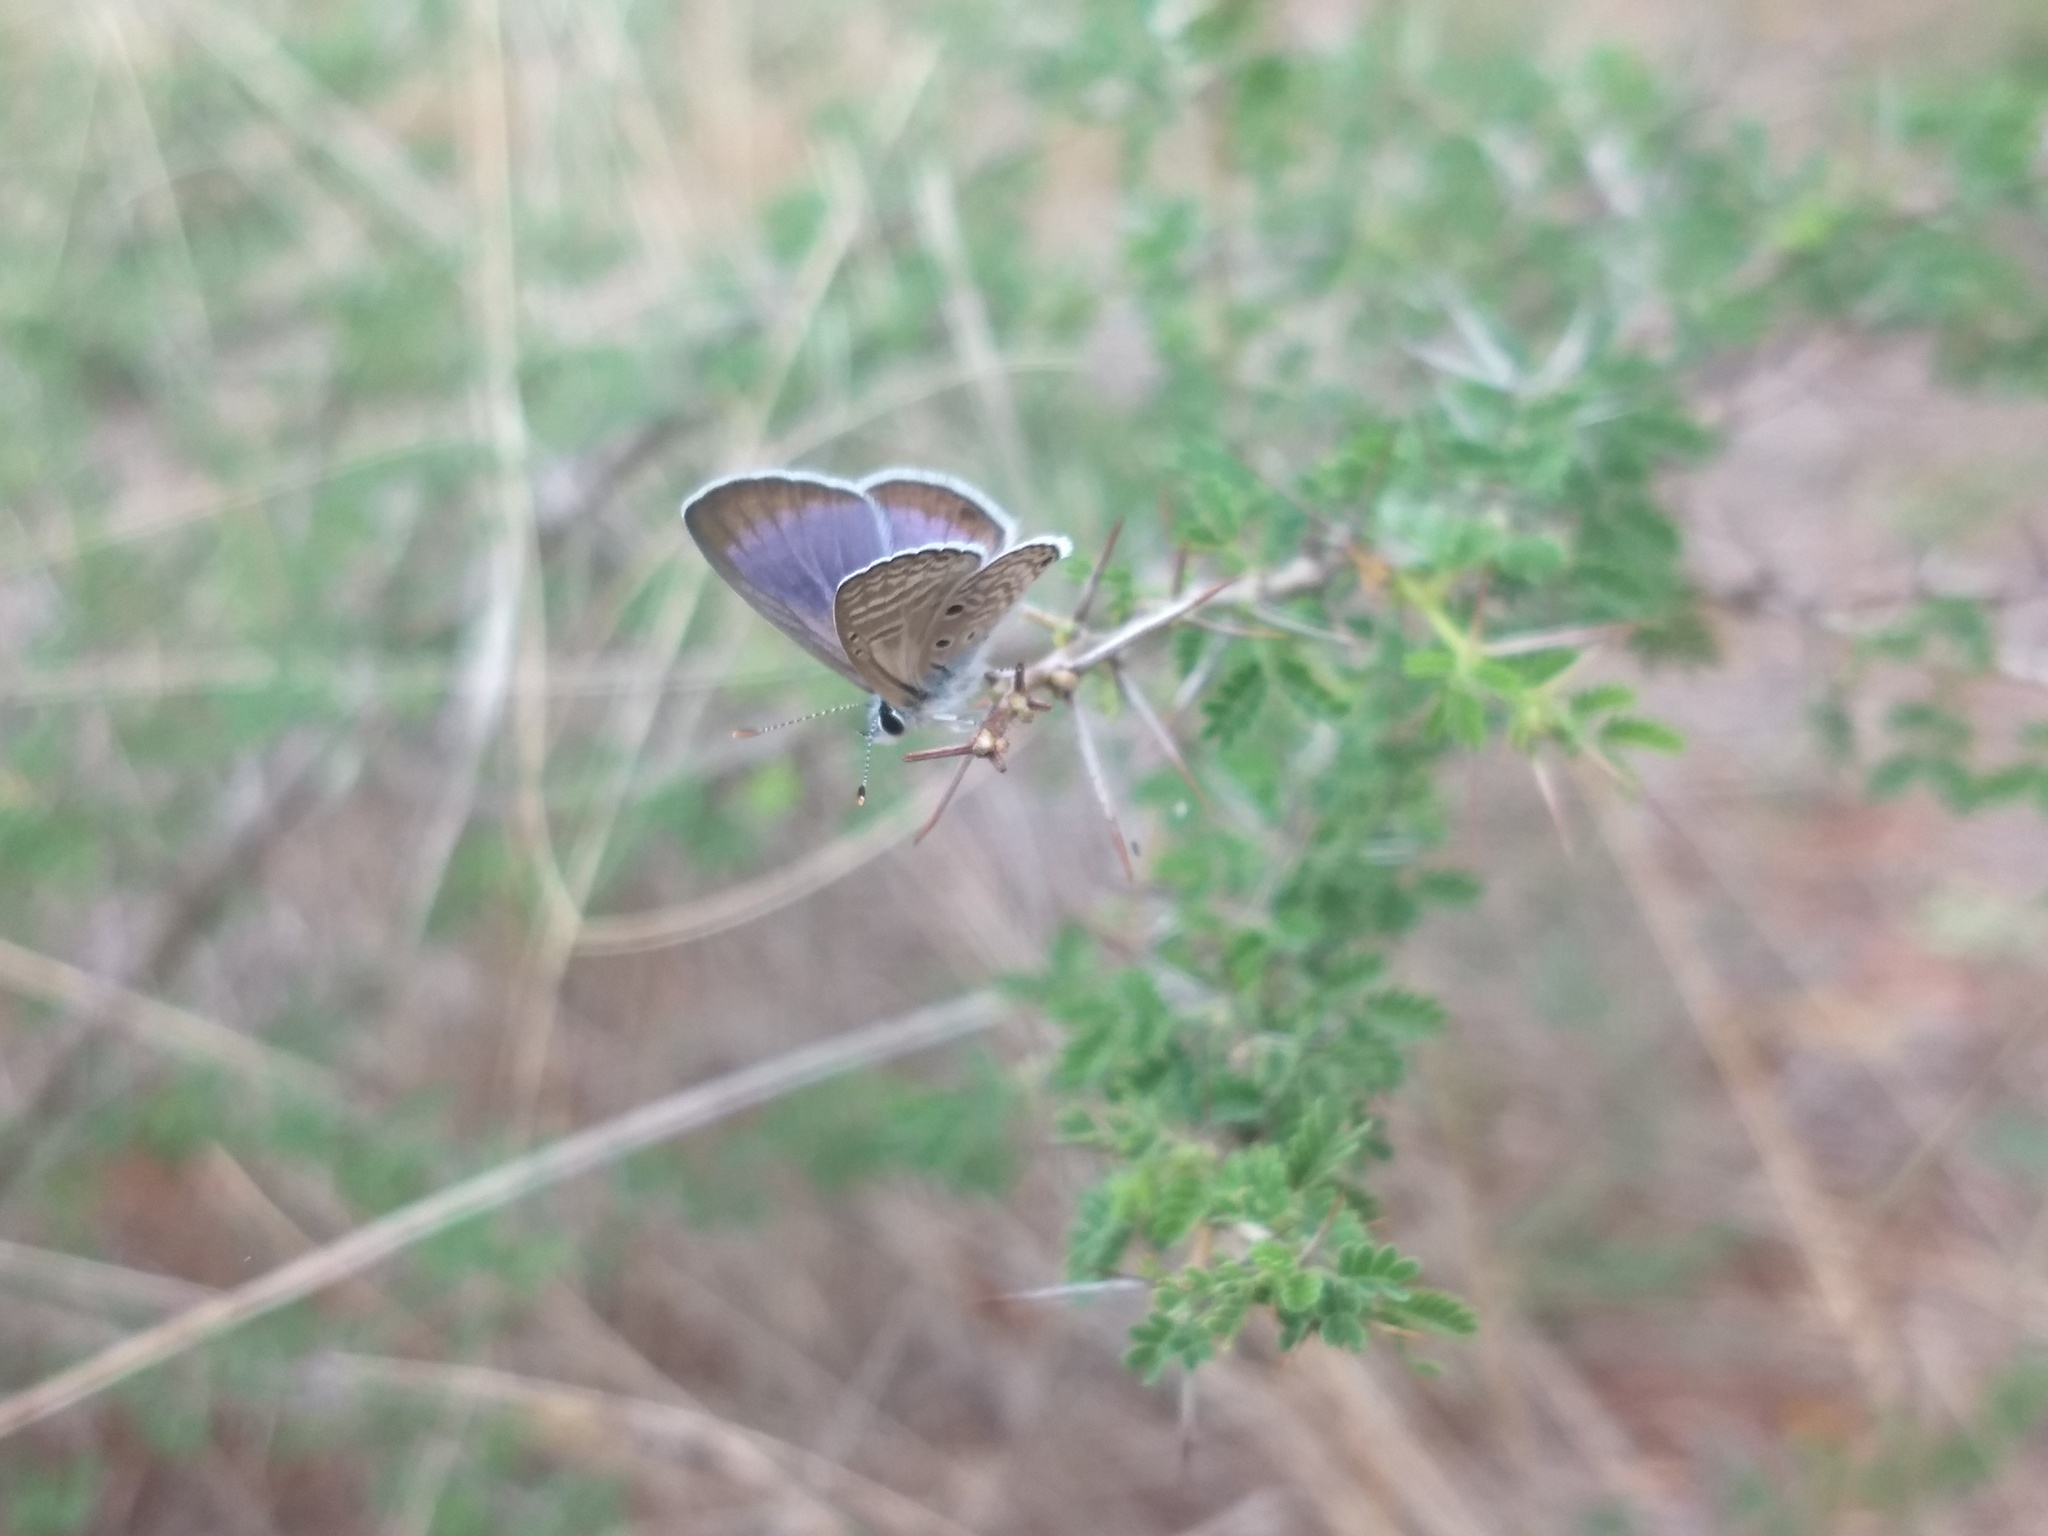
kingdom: Animalia
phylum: Arthropoda
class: Insecta
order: Lepidoptera
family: Lycaenidae
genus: Azanus
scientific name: Azanus ubaldus
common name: Desert babul blue
